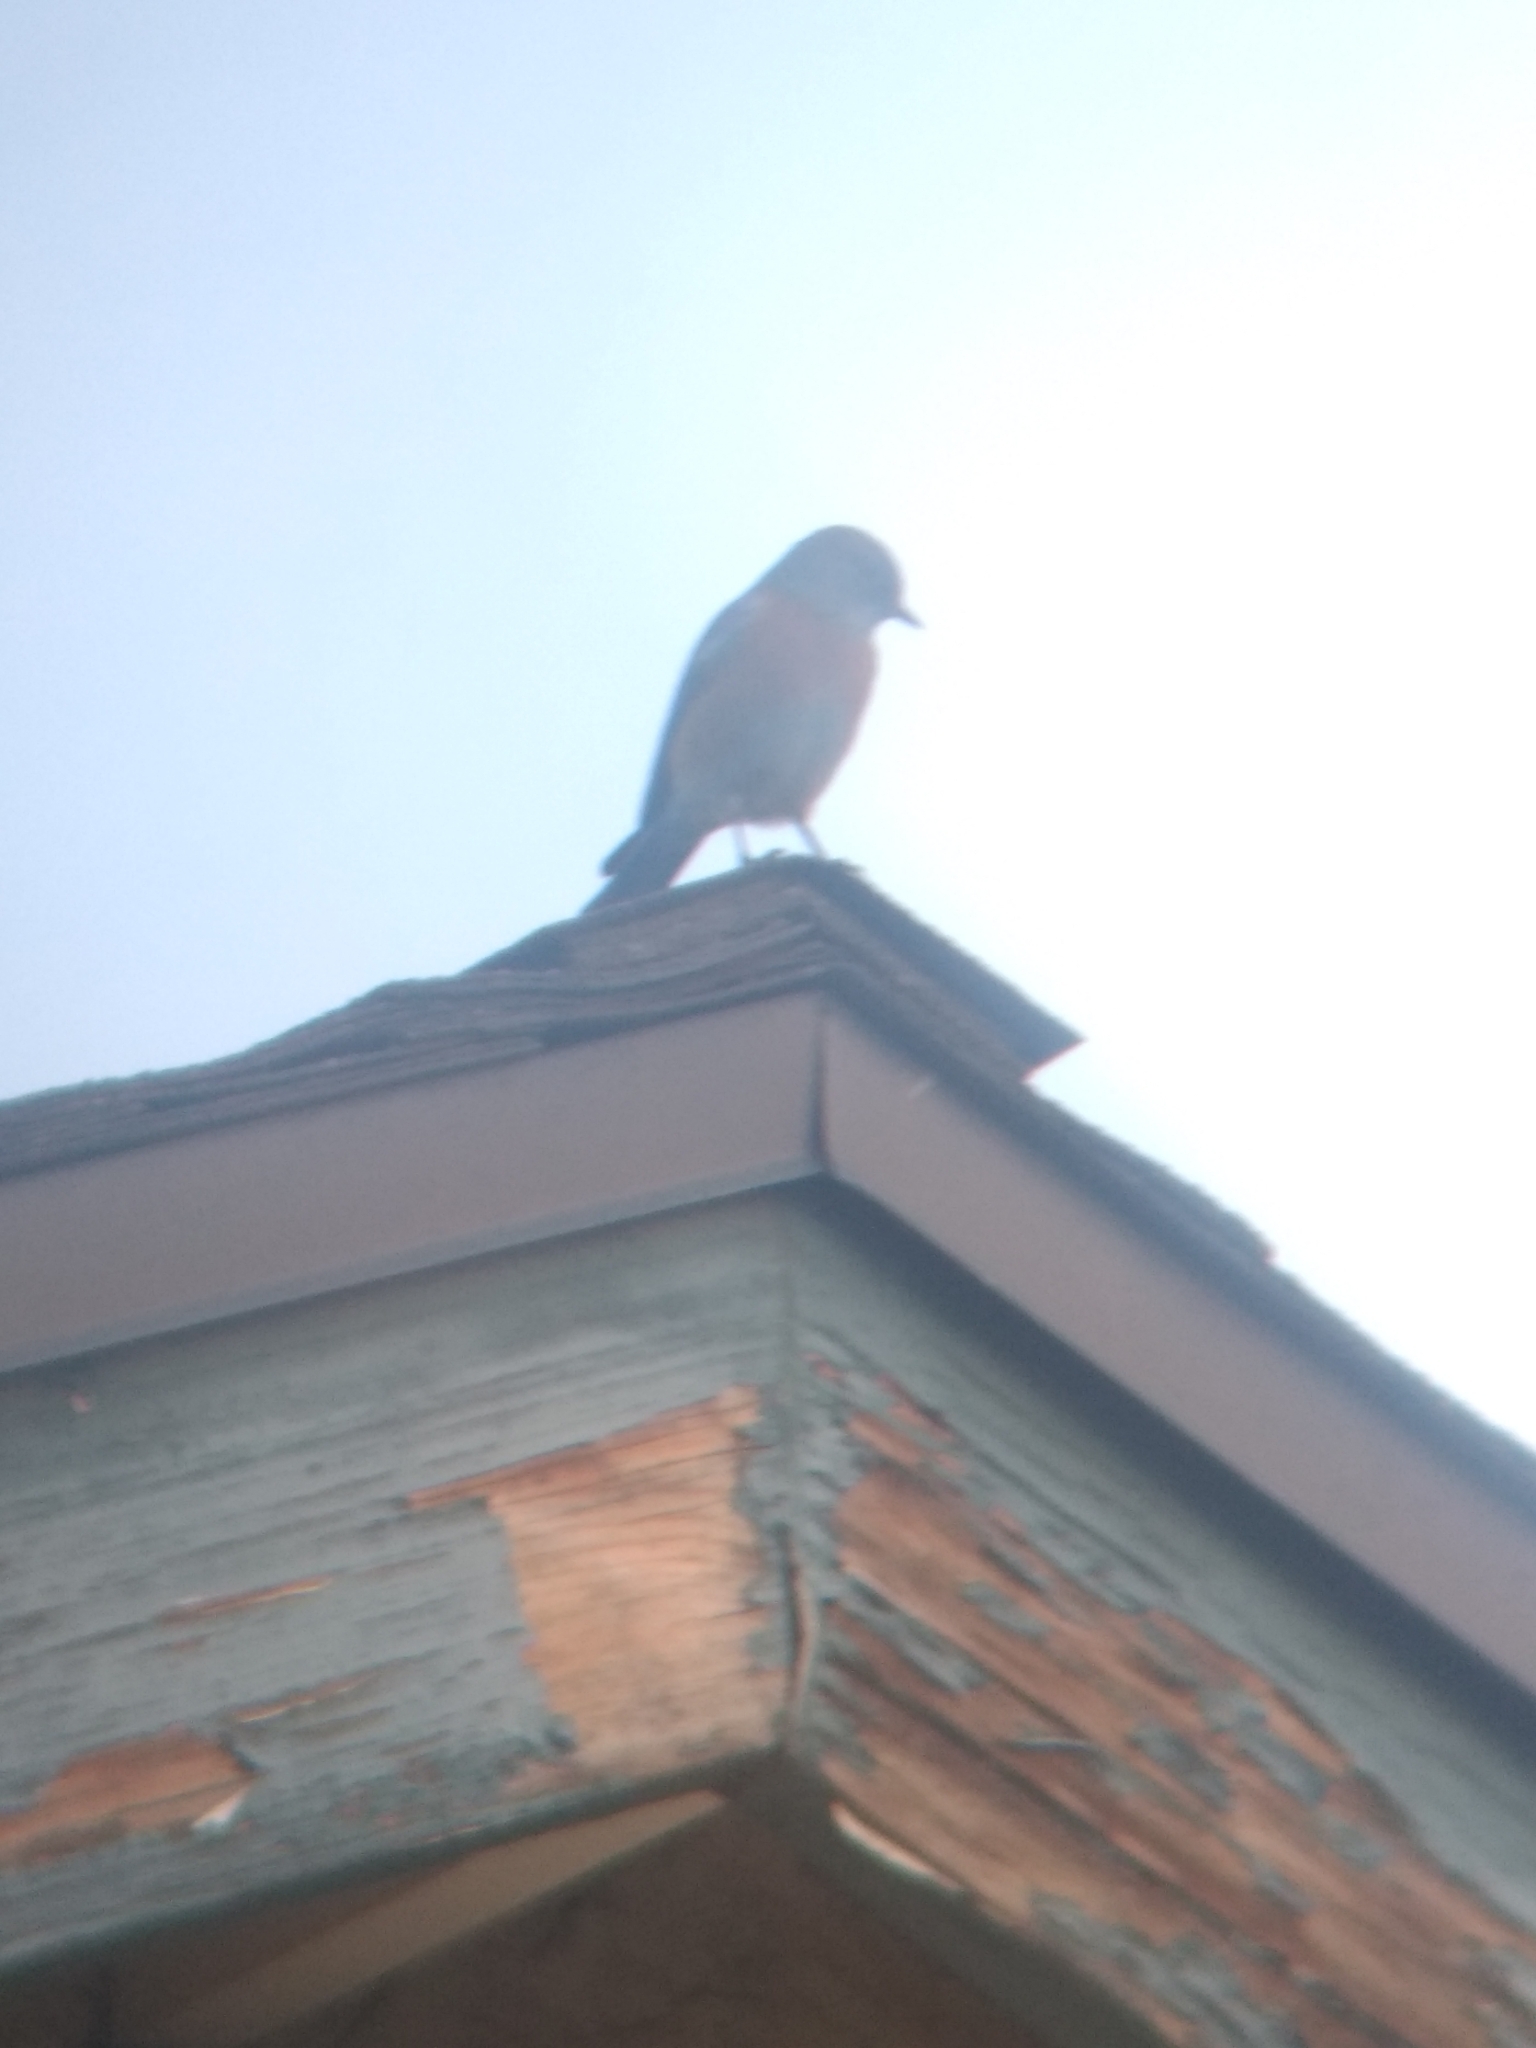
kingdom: Animalia
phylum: Chordata
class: Aves
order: Passeriformes
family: Turdidae
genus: Sialia
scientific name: Sialia mexicana
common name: Western bluebird
